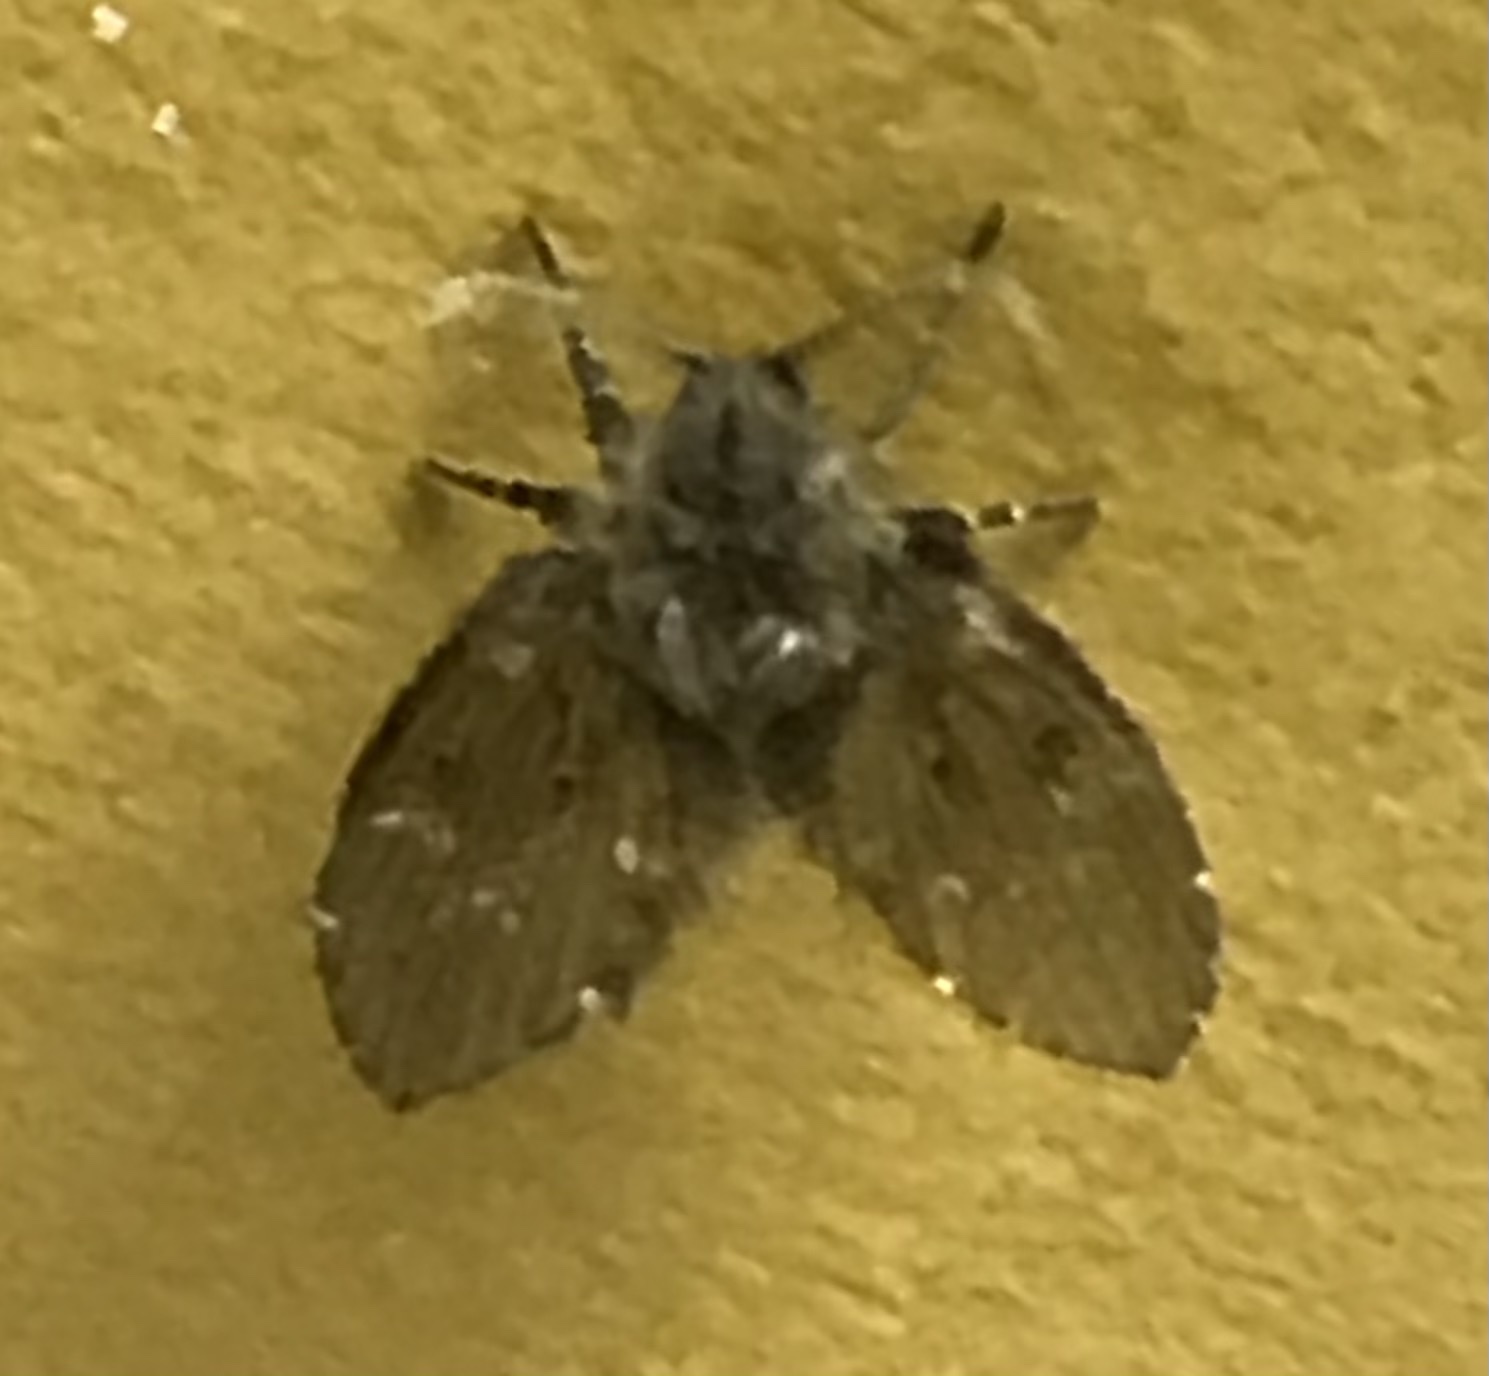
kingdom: Animalia
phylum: Arthropoda
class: Insecta
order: Diptera
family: Psychodidae
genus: Clogmia
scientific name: Clogmia albipunctatus
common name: White-spotted moth fly
